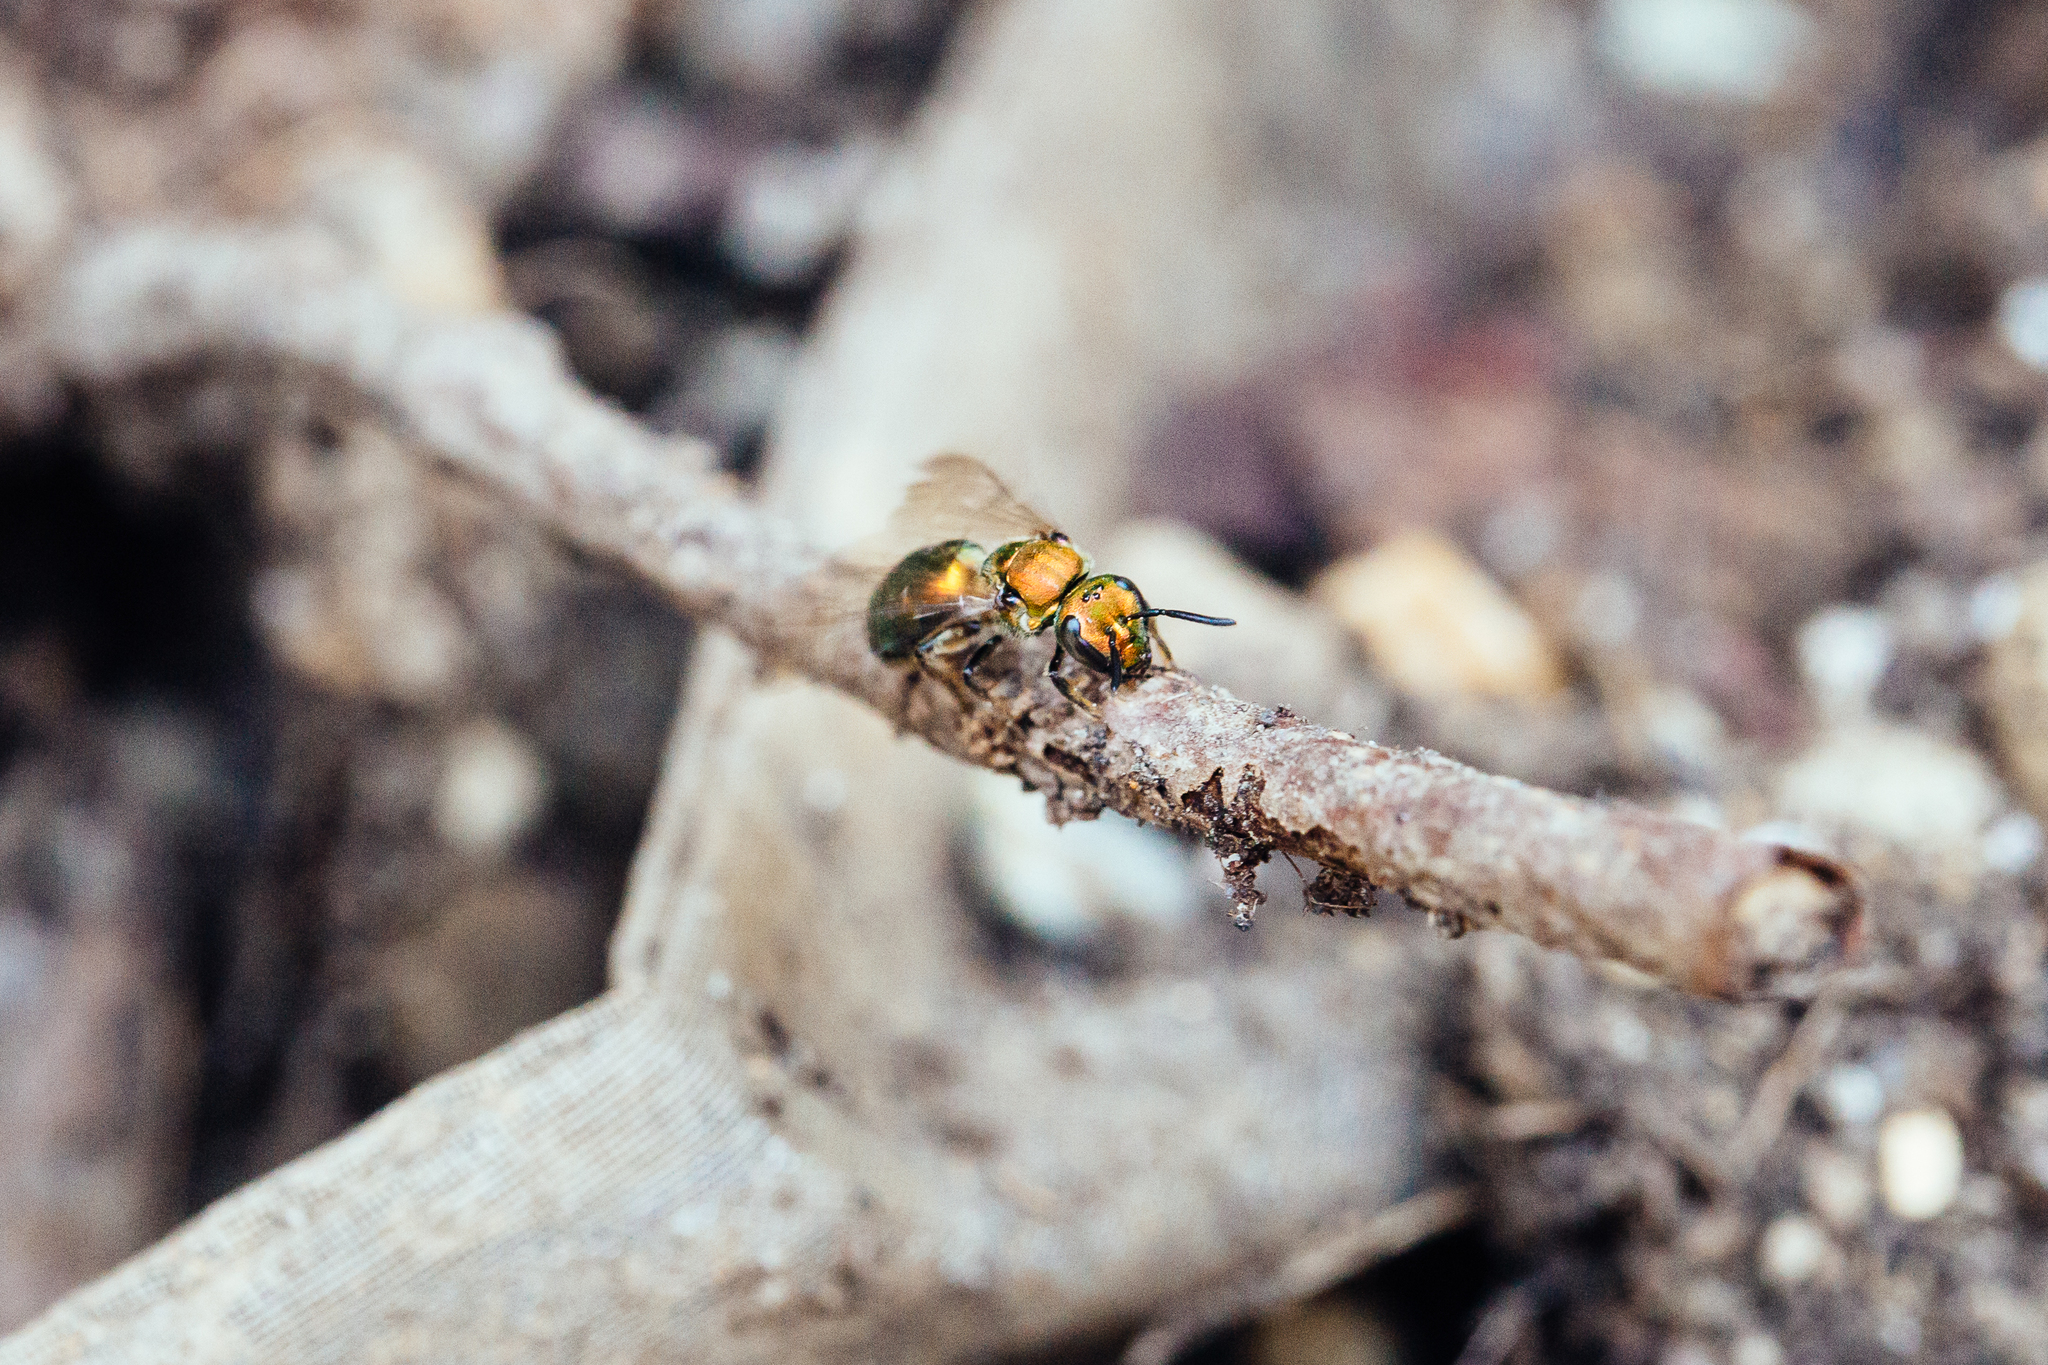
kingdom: Animalia
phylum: Arthropoda
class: Insecta
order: Hymenoptera
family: Halictidae
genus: Augochlora
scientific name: Augochlora pura
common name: Pure green sweat bee
